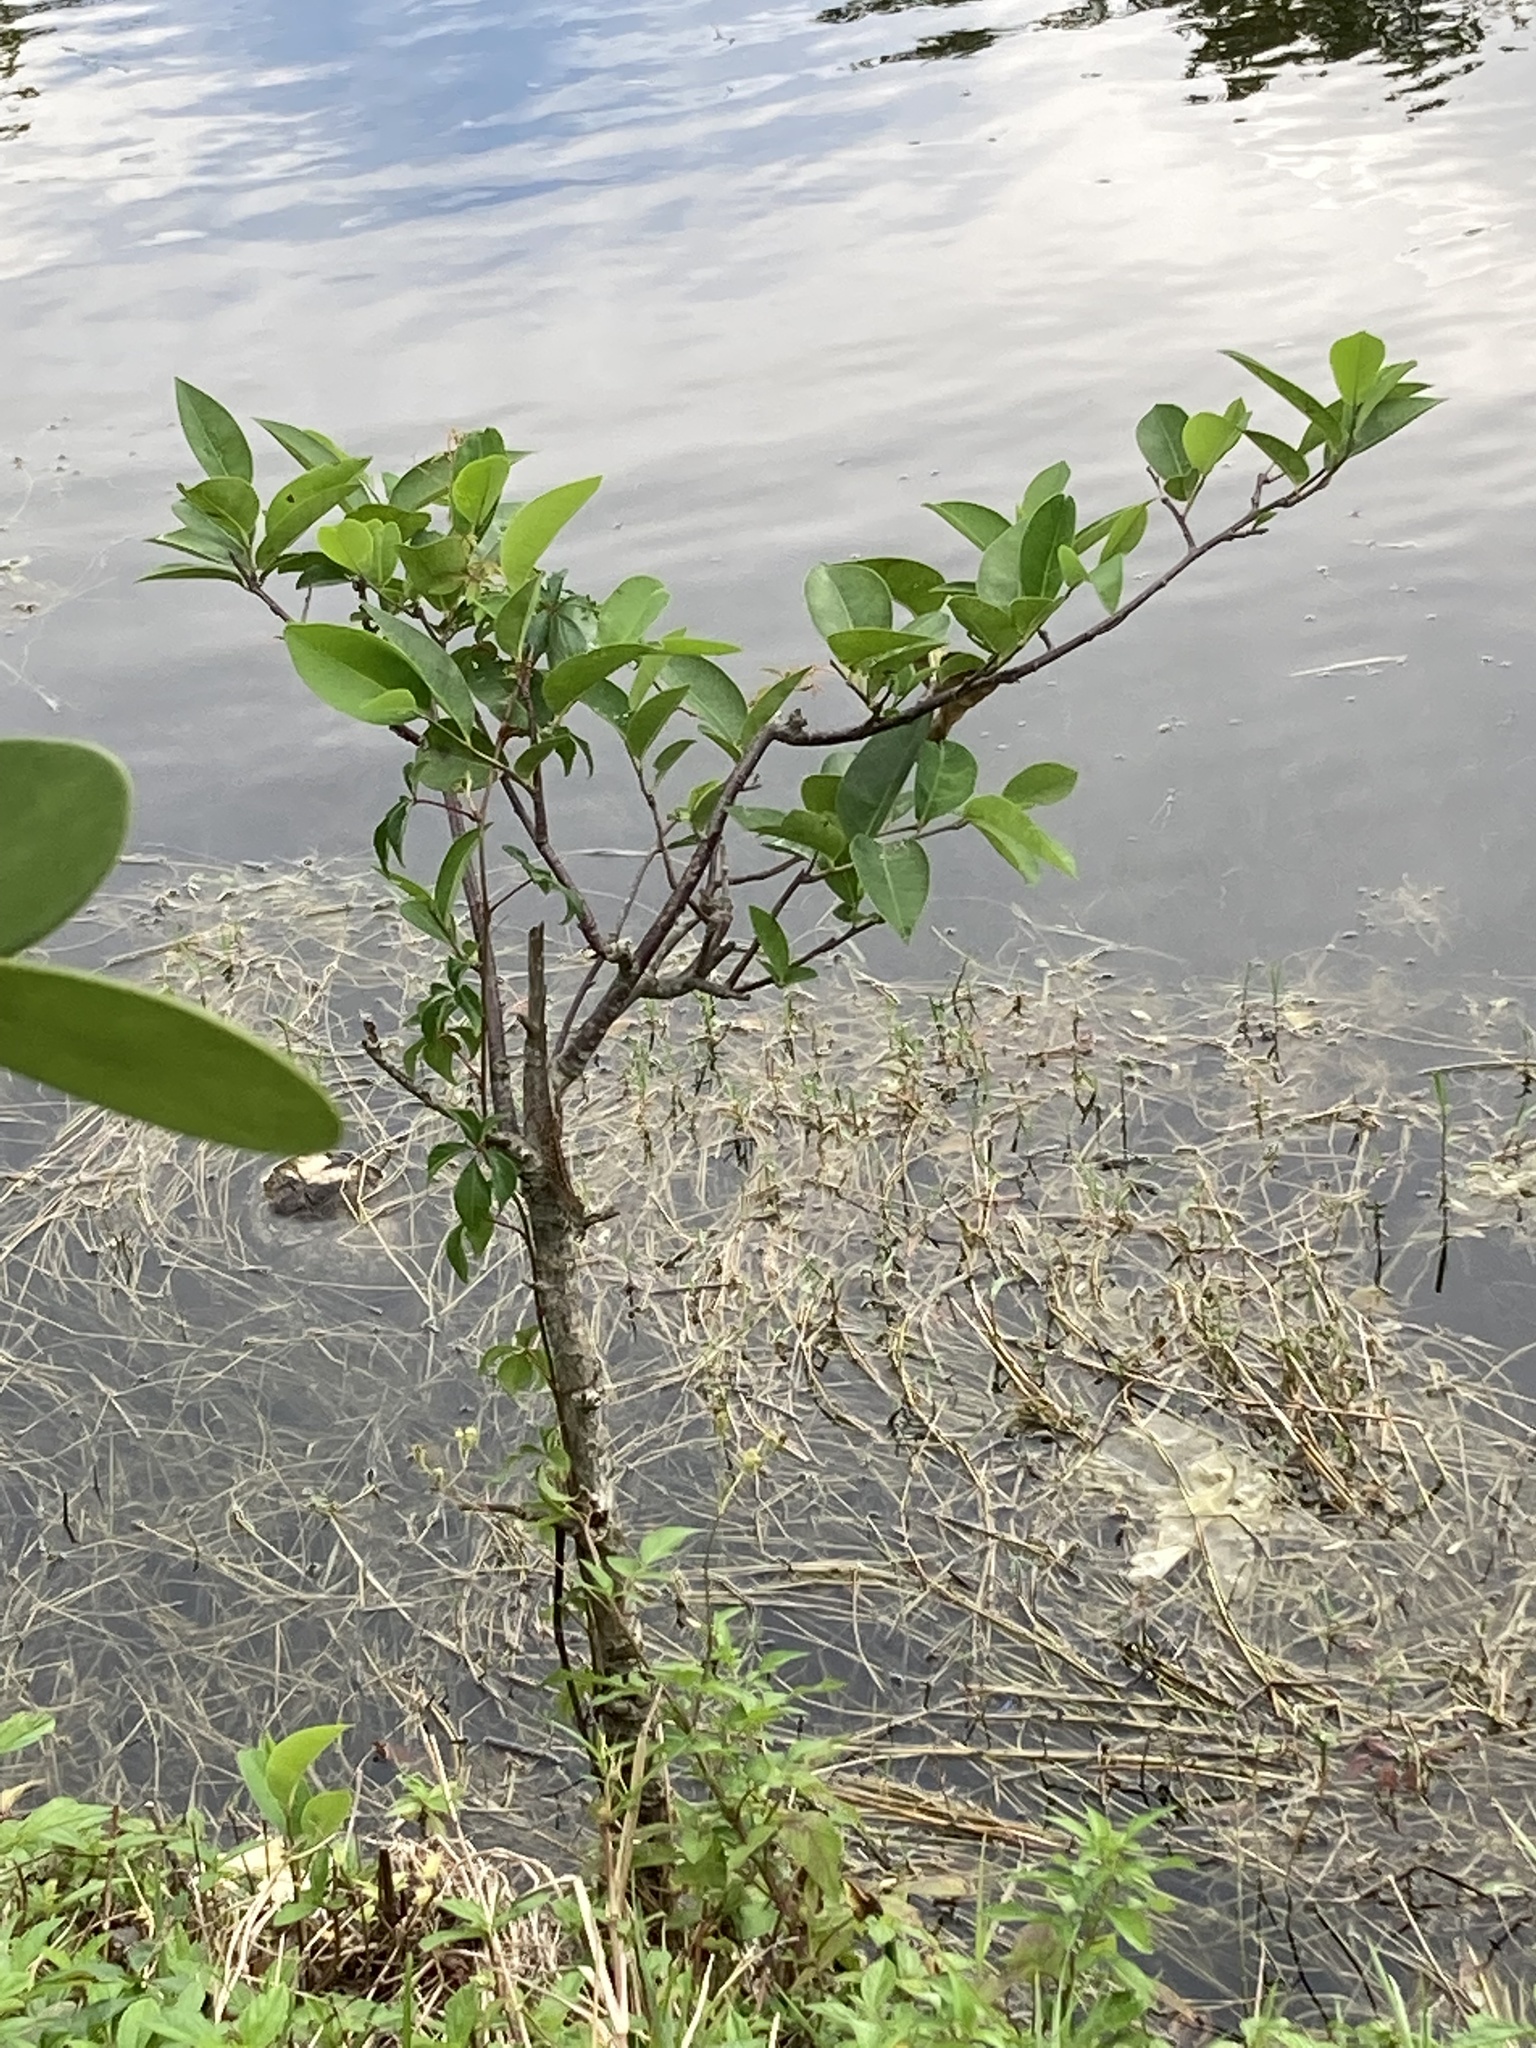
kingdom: Plantae
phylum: Tracheophyta
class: Magnoliopsida
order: Magnoliales
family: Annonaceae
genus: Annona
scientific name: Annona glabra
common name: Monkey apple
